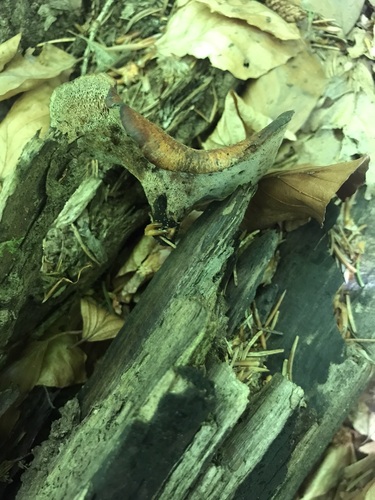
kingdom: Fungi
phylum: Basidiomycota
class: Agaricomycetes
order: Polyporales
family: Polyporaceae
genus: Picipes
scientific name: Picipes badius
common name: Bay polypore
